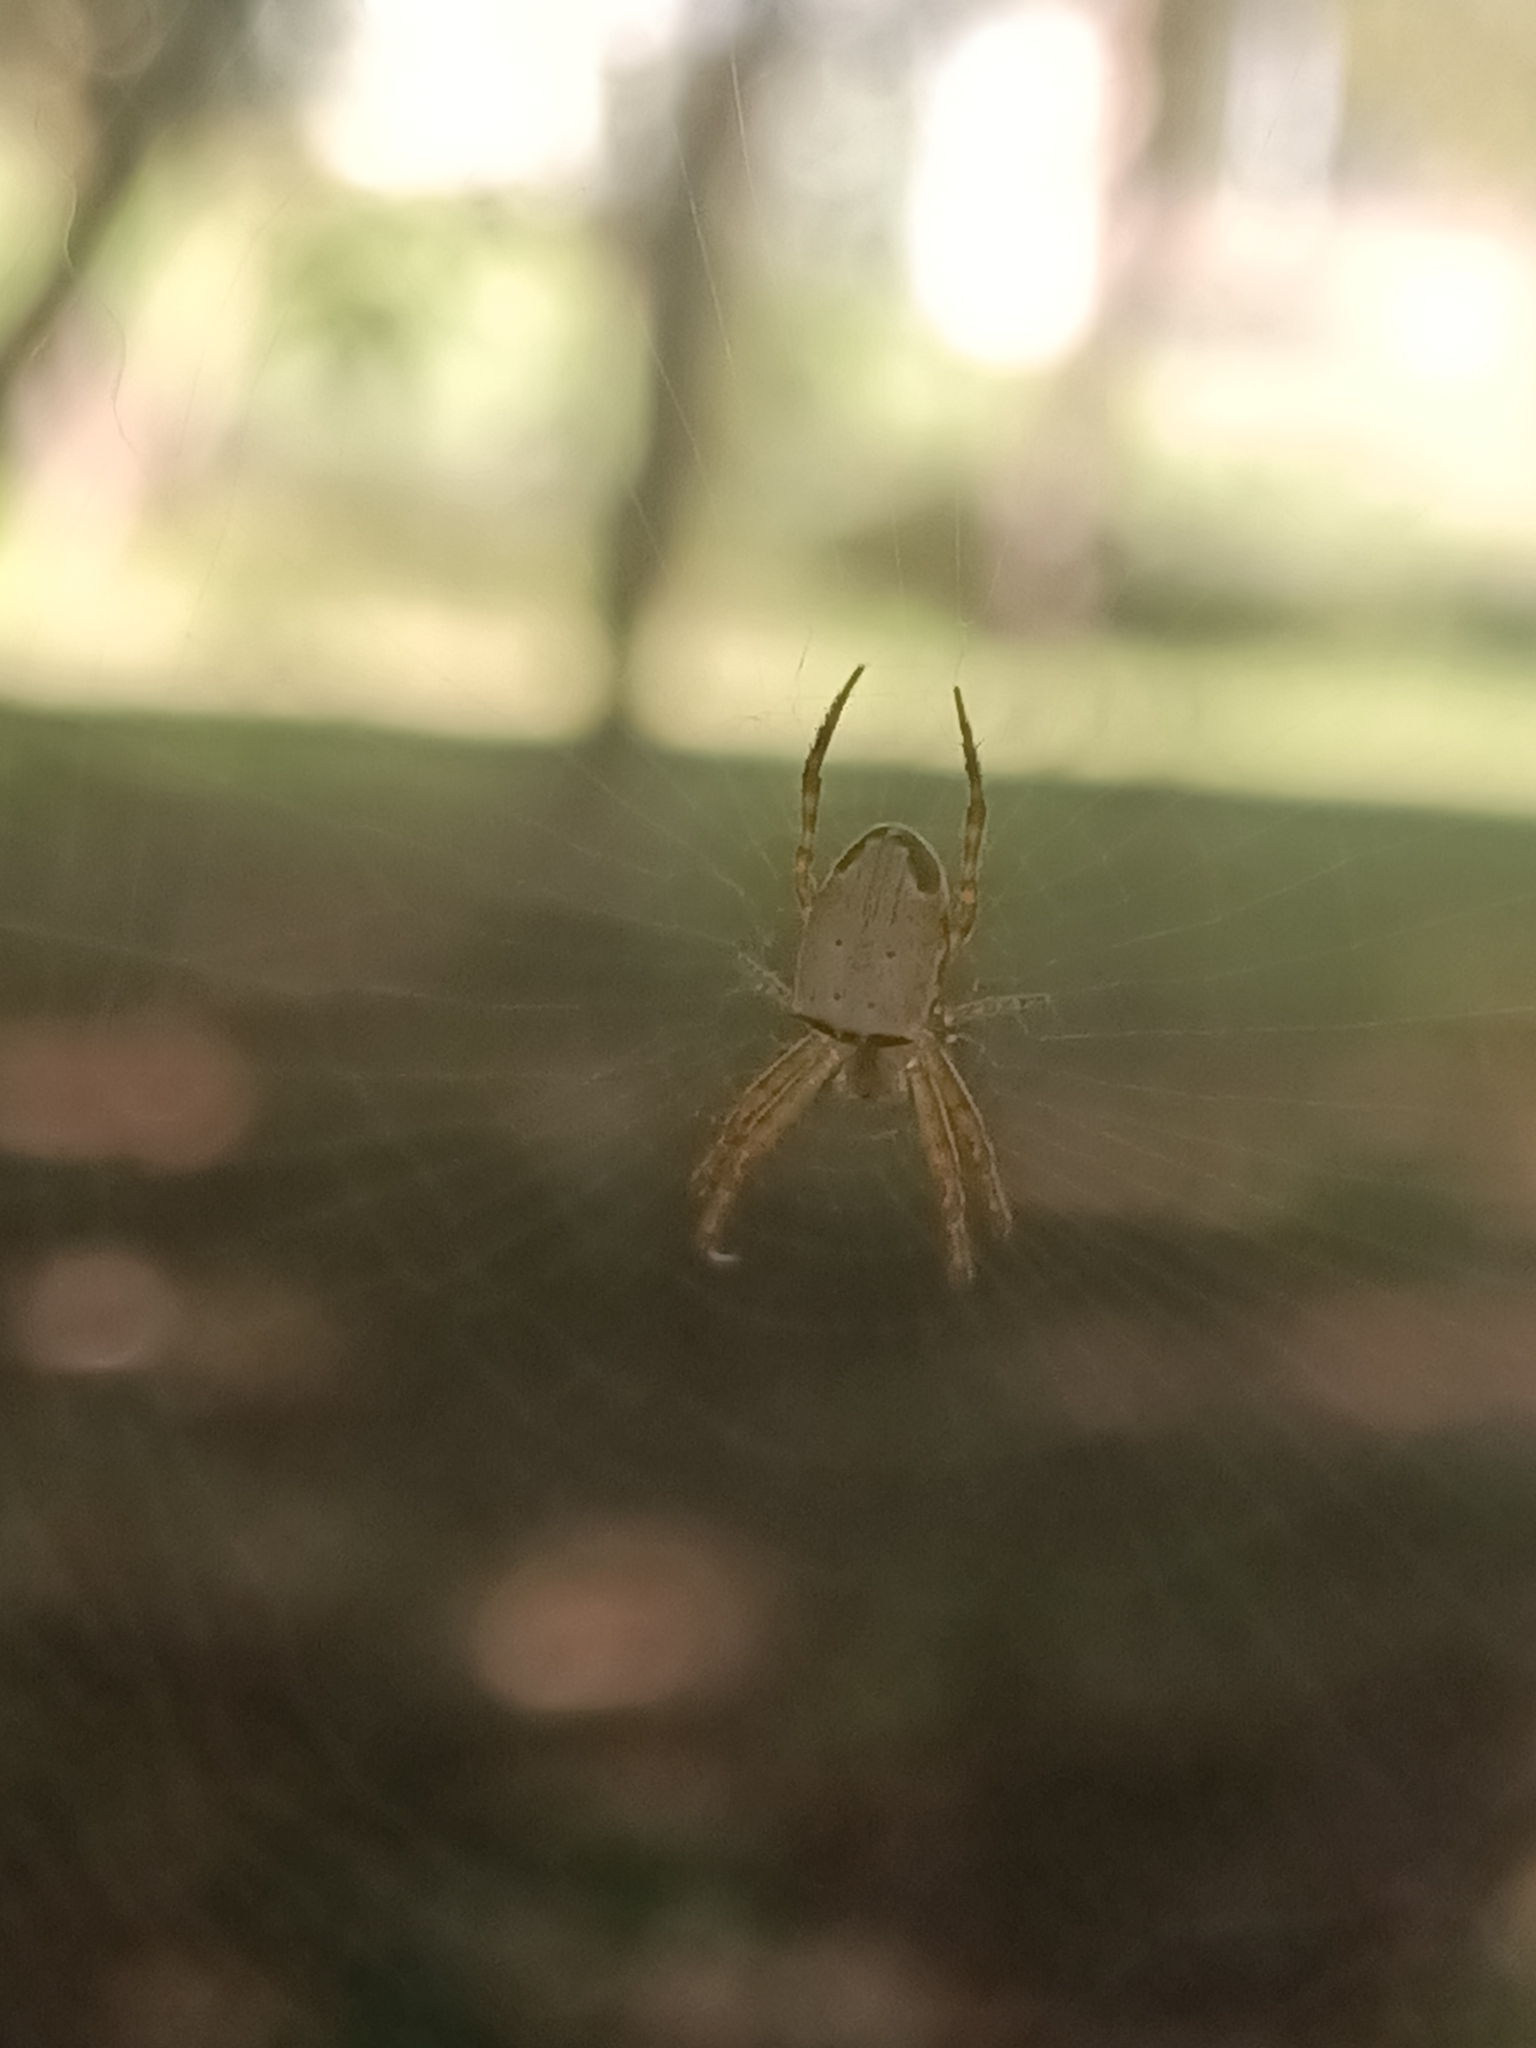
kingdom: Animalia
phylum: Arthropoda
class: Arachnida
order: Araneae
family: Araneidae
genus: Plebs
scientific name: Plebs eburnus
